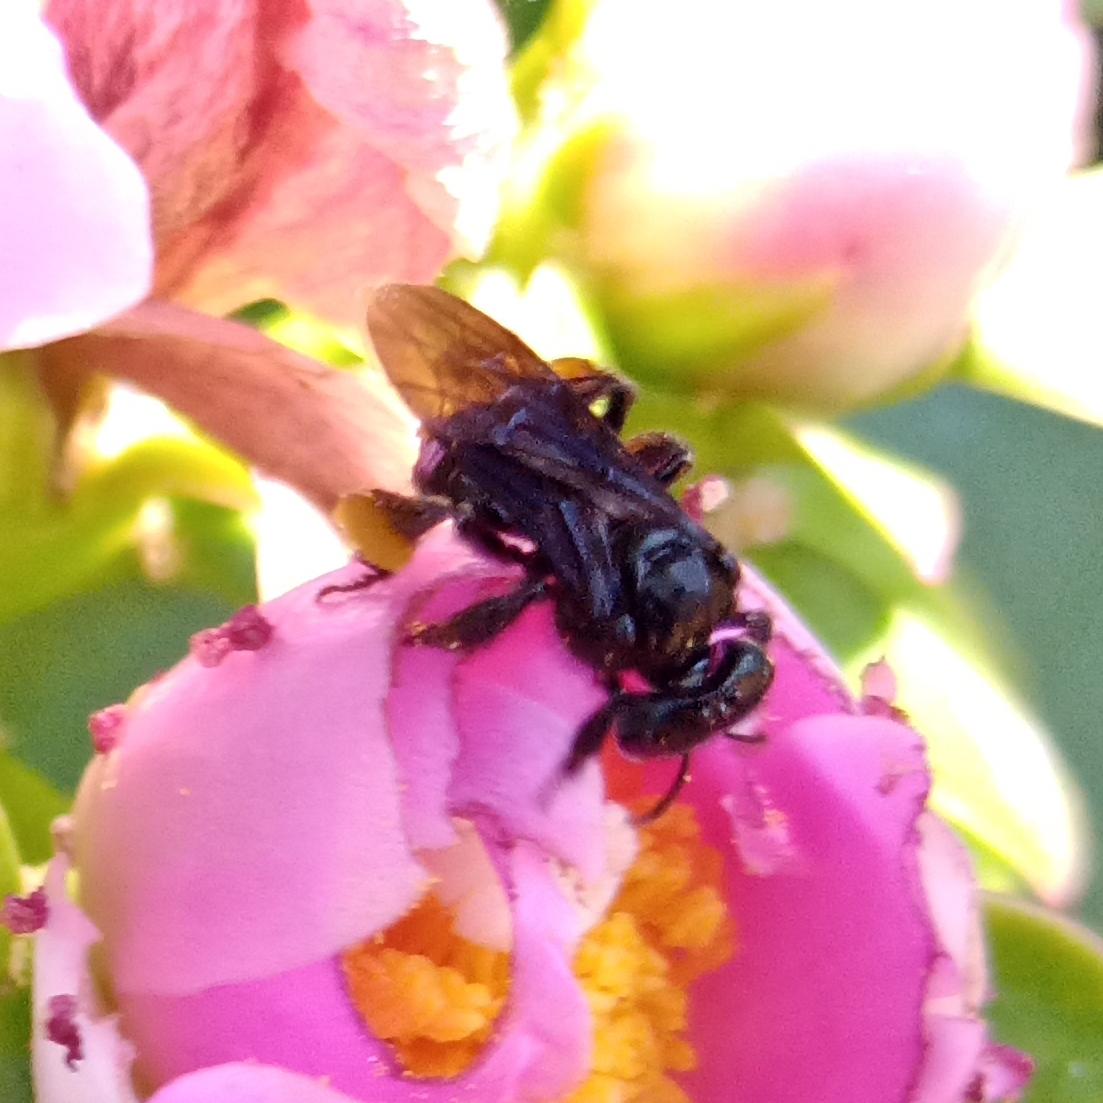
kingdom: Animalia
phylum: Arthropoda
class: Insecta
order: Hymenoptera
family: Apidae
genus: Trigona
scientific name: Trigona spinipes
